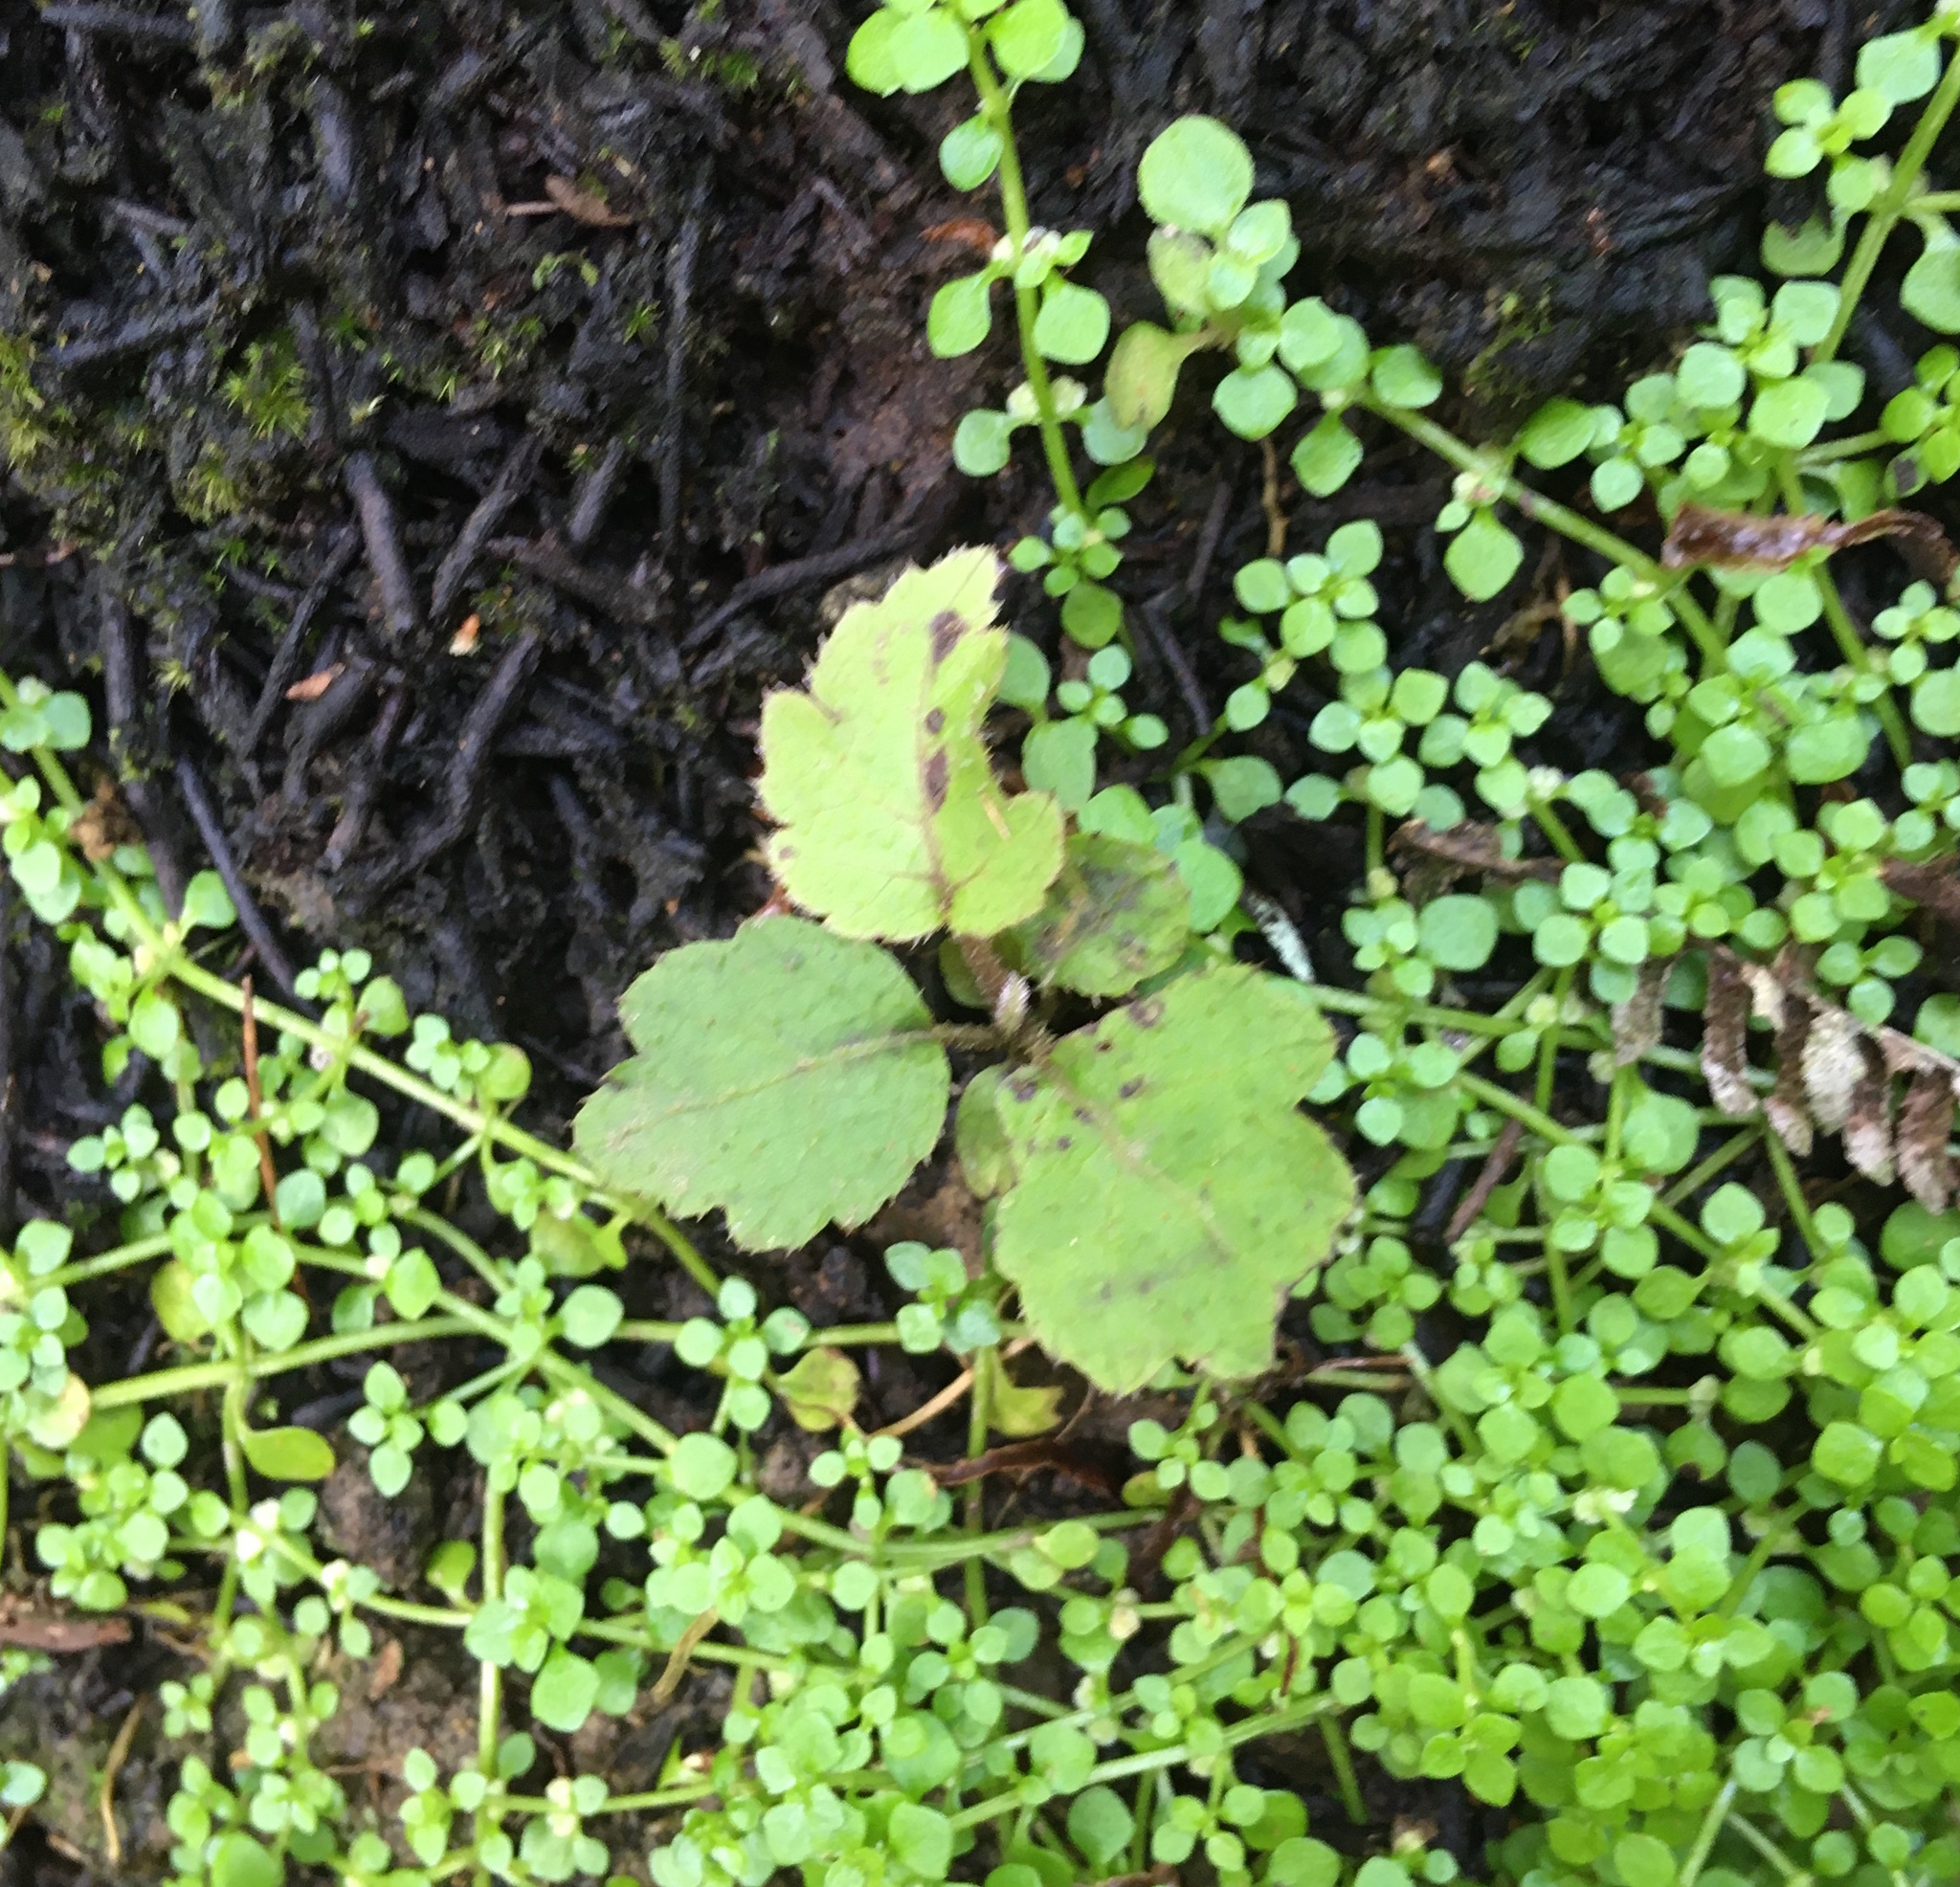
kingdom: Plantae
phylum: Tracheophyta
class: Magnoliopsida
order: Apiales
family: Araliaceae
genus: Schefflera
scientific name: Schefflera digitata
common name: Pate
